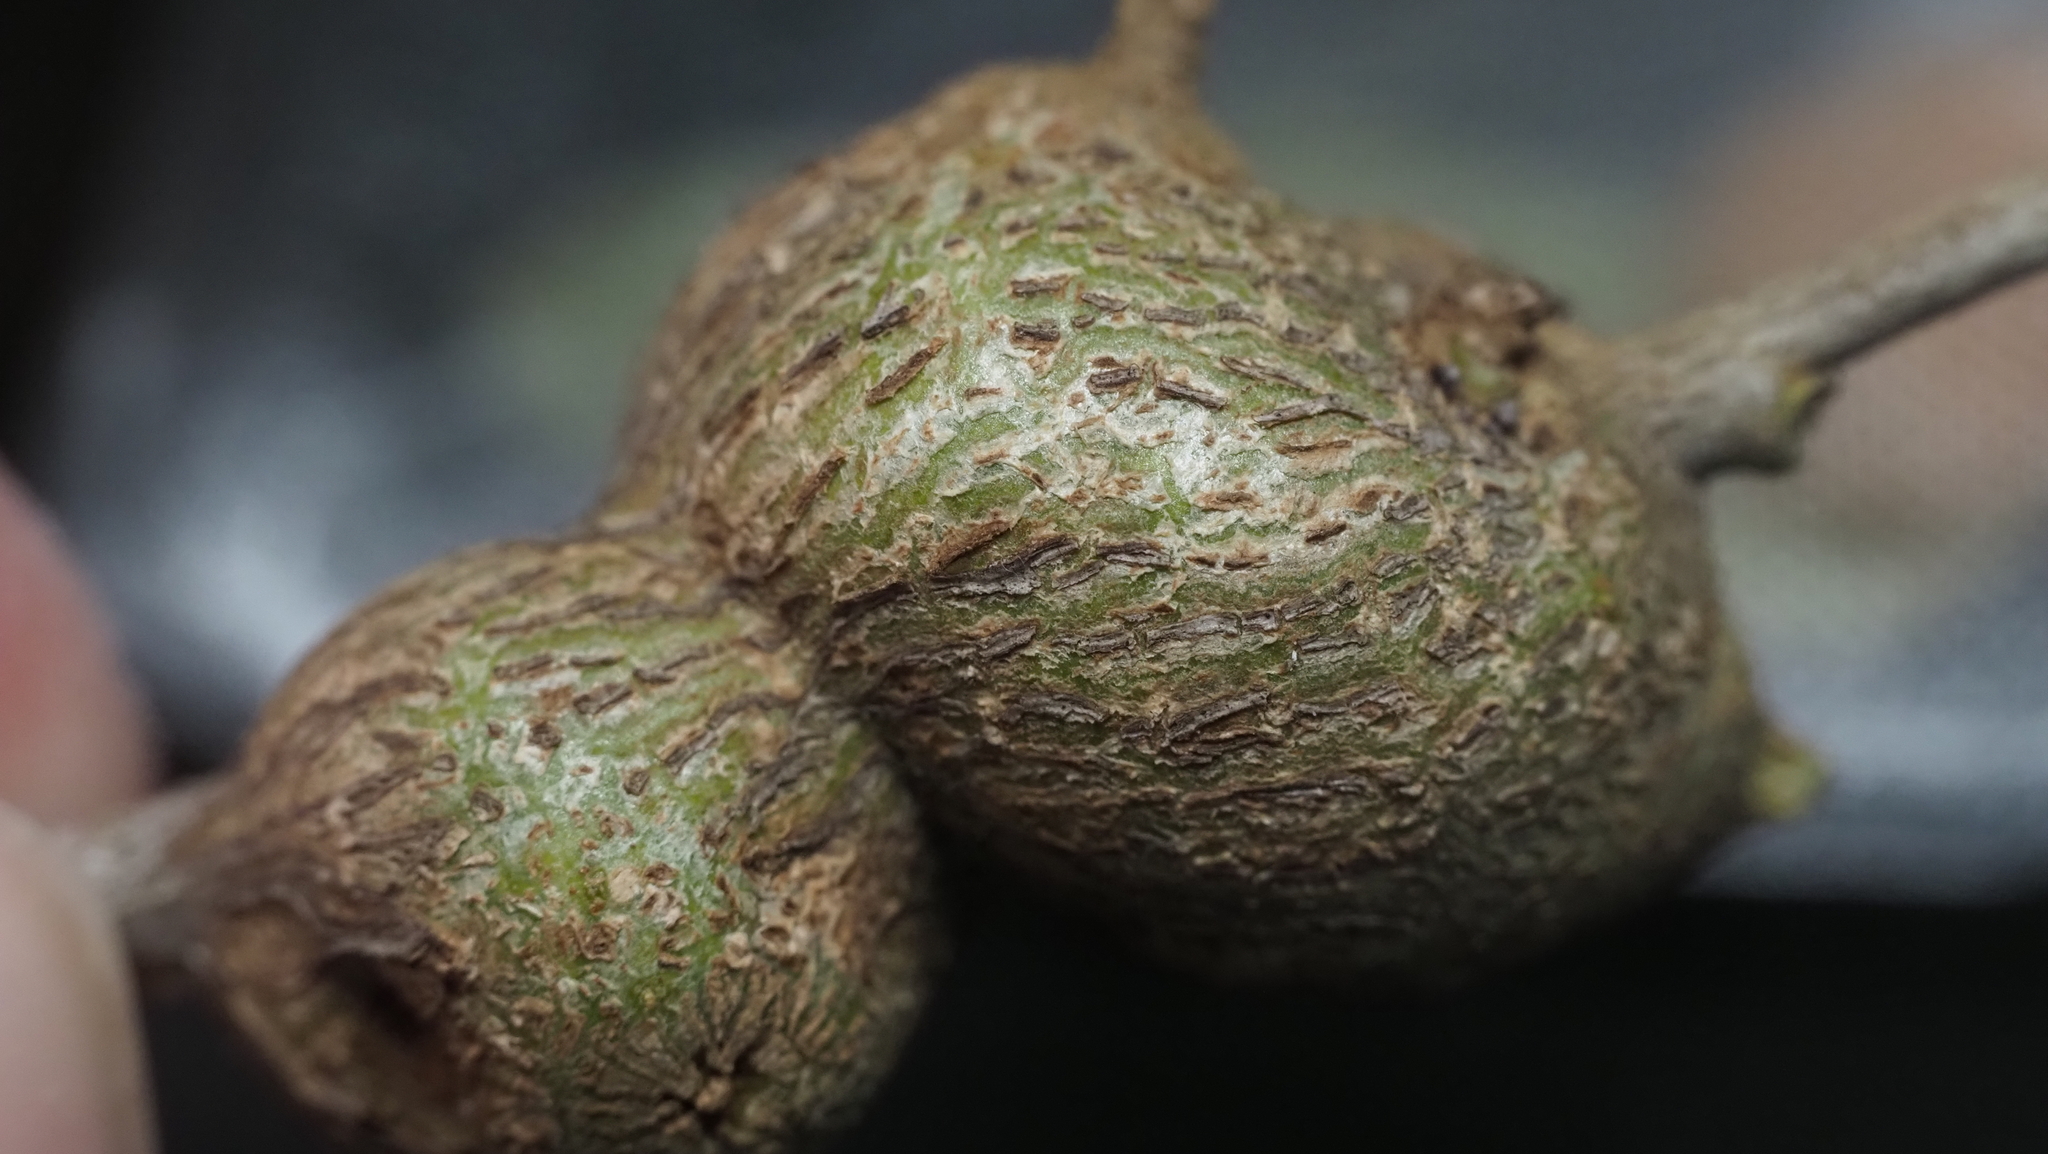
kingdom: Animalia
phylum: Arthropoda
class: Insecta
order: Hymenoptera
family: Cynipidae
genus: Callirhytis
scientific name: Callirhytis
